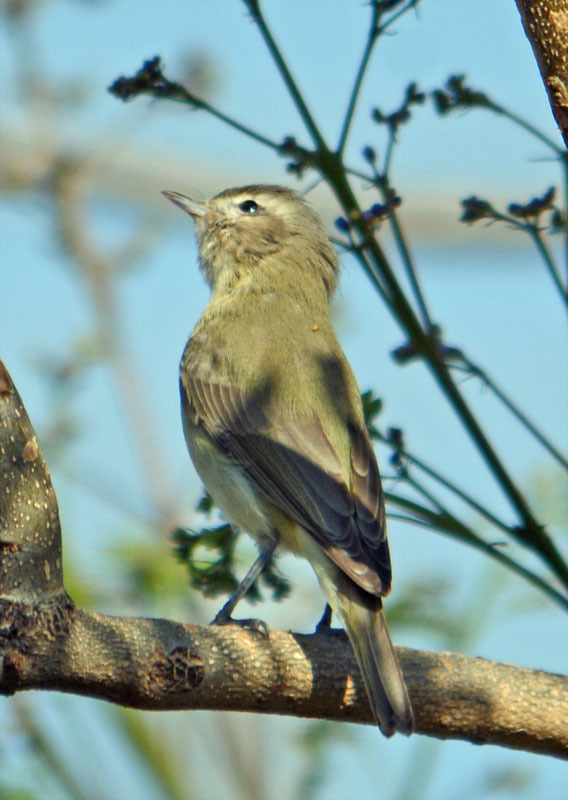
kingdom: Animalia
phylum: Chordata
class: Aves
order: Passeriformes
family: Vireonidae
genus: Vireo
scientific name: Vireo gilvus
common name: Warbling vireo
